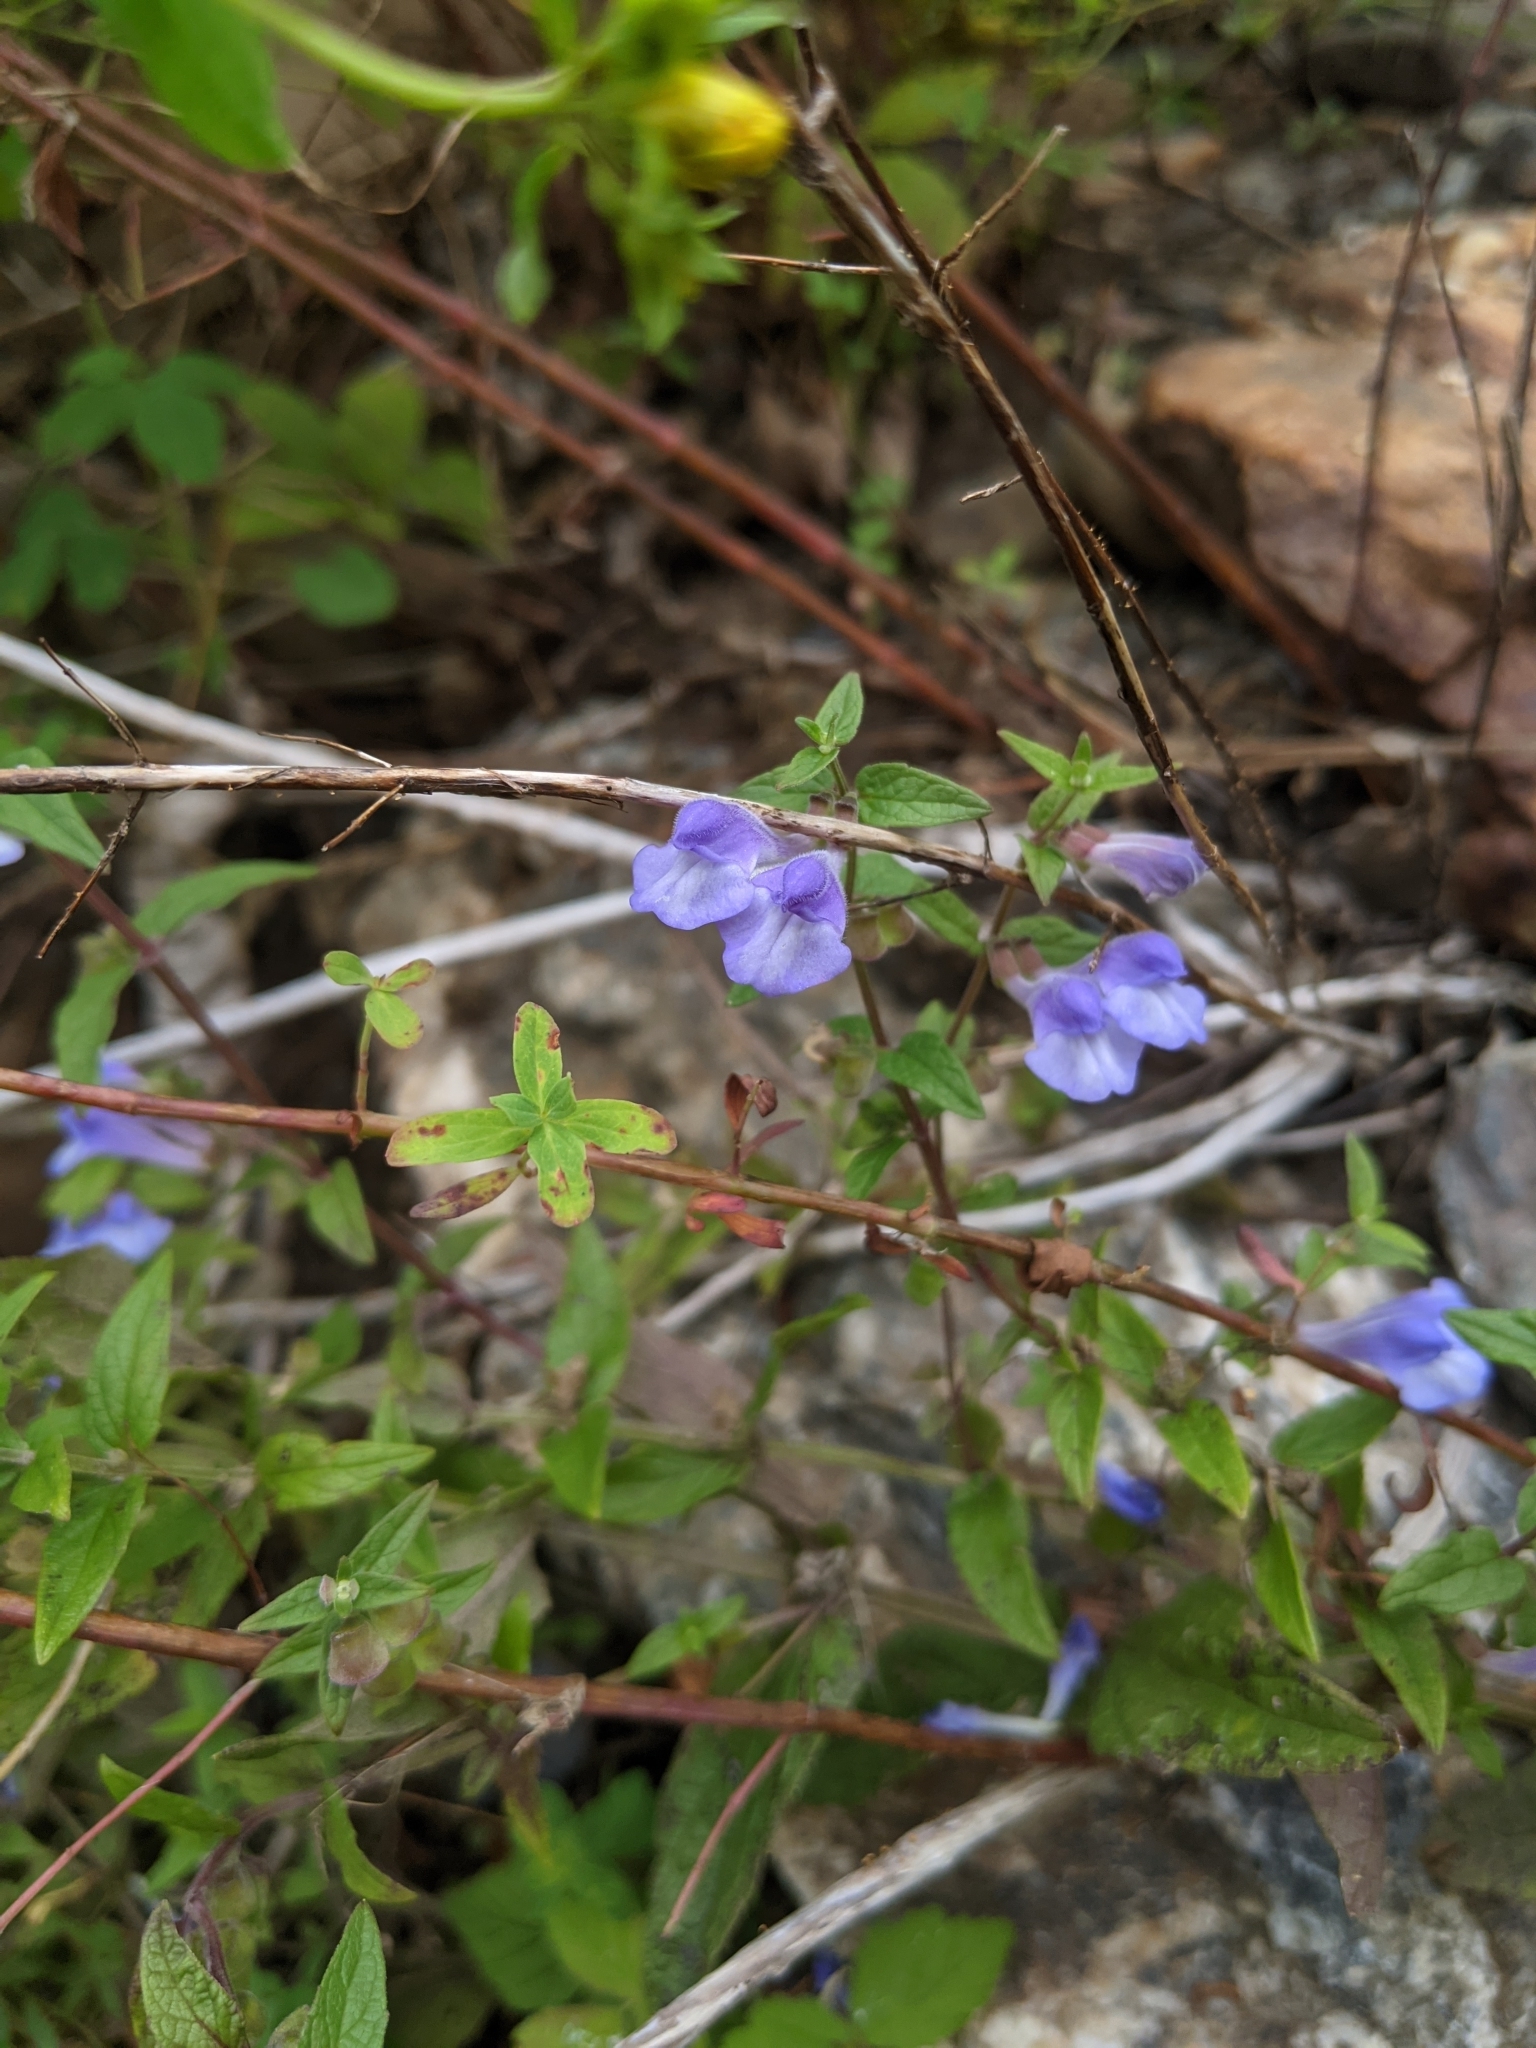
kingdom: Plantae
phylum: Tracheophyta
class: Magnoliopsida
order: Lamiales
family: Lamiaceae
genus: Scutellaria
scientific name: Scutellaria galericulata
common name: Skullcap
